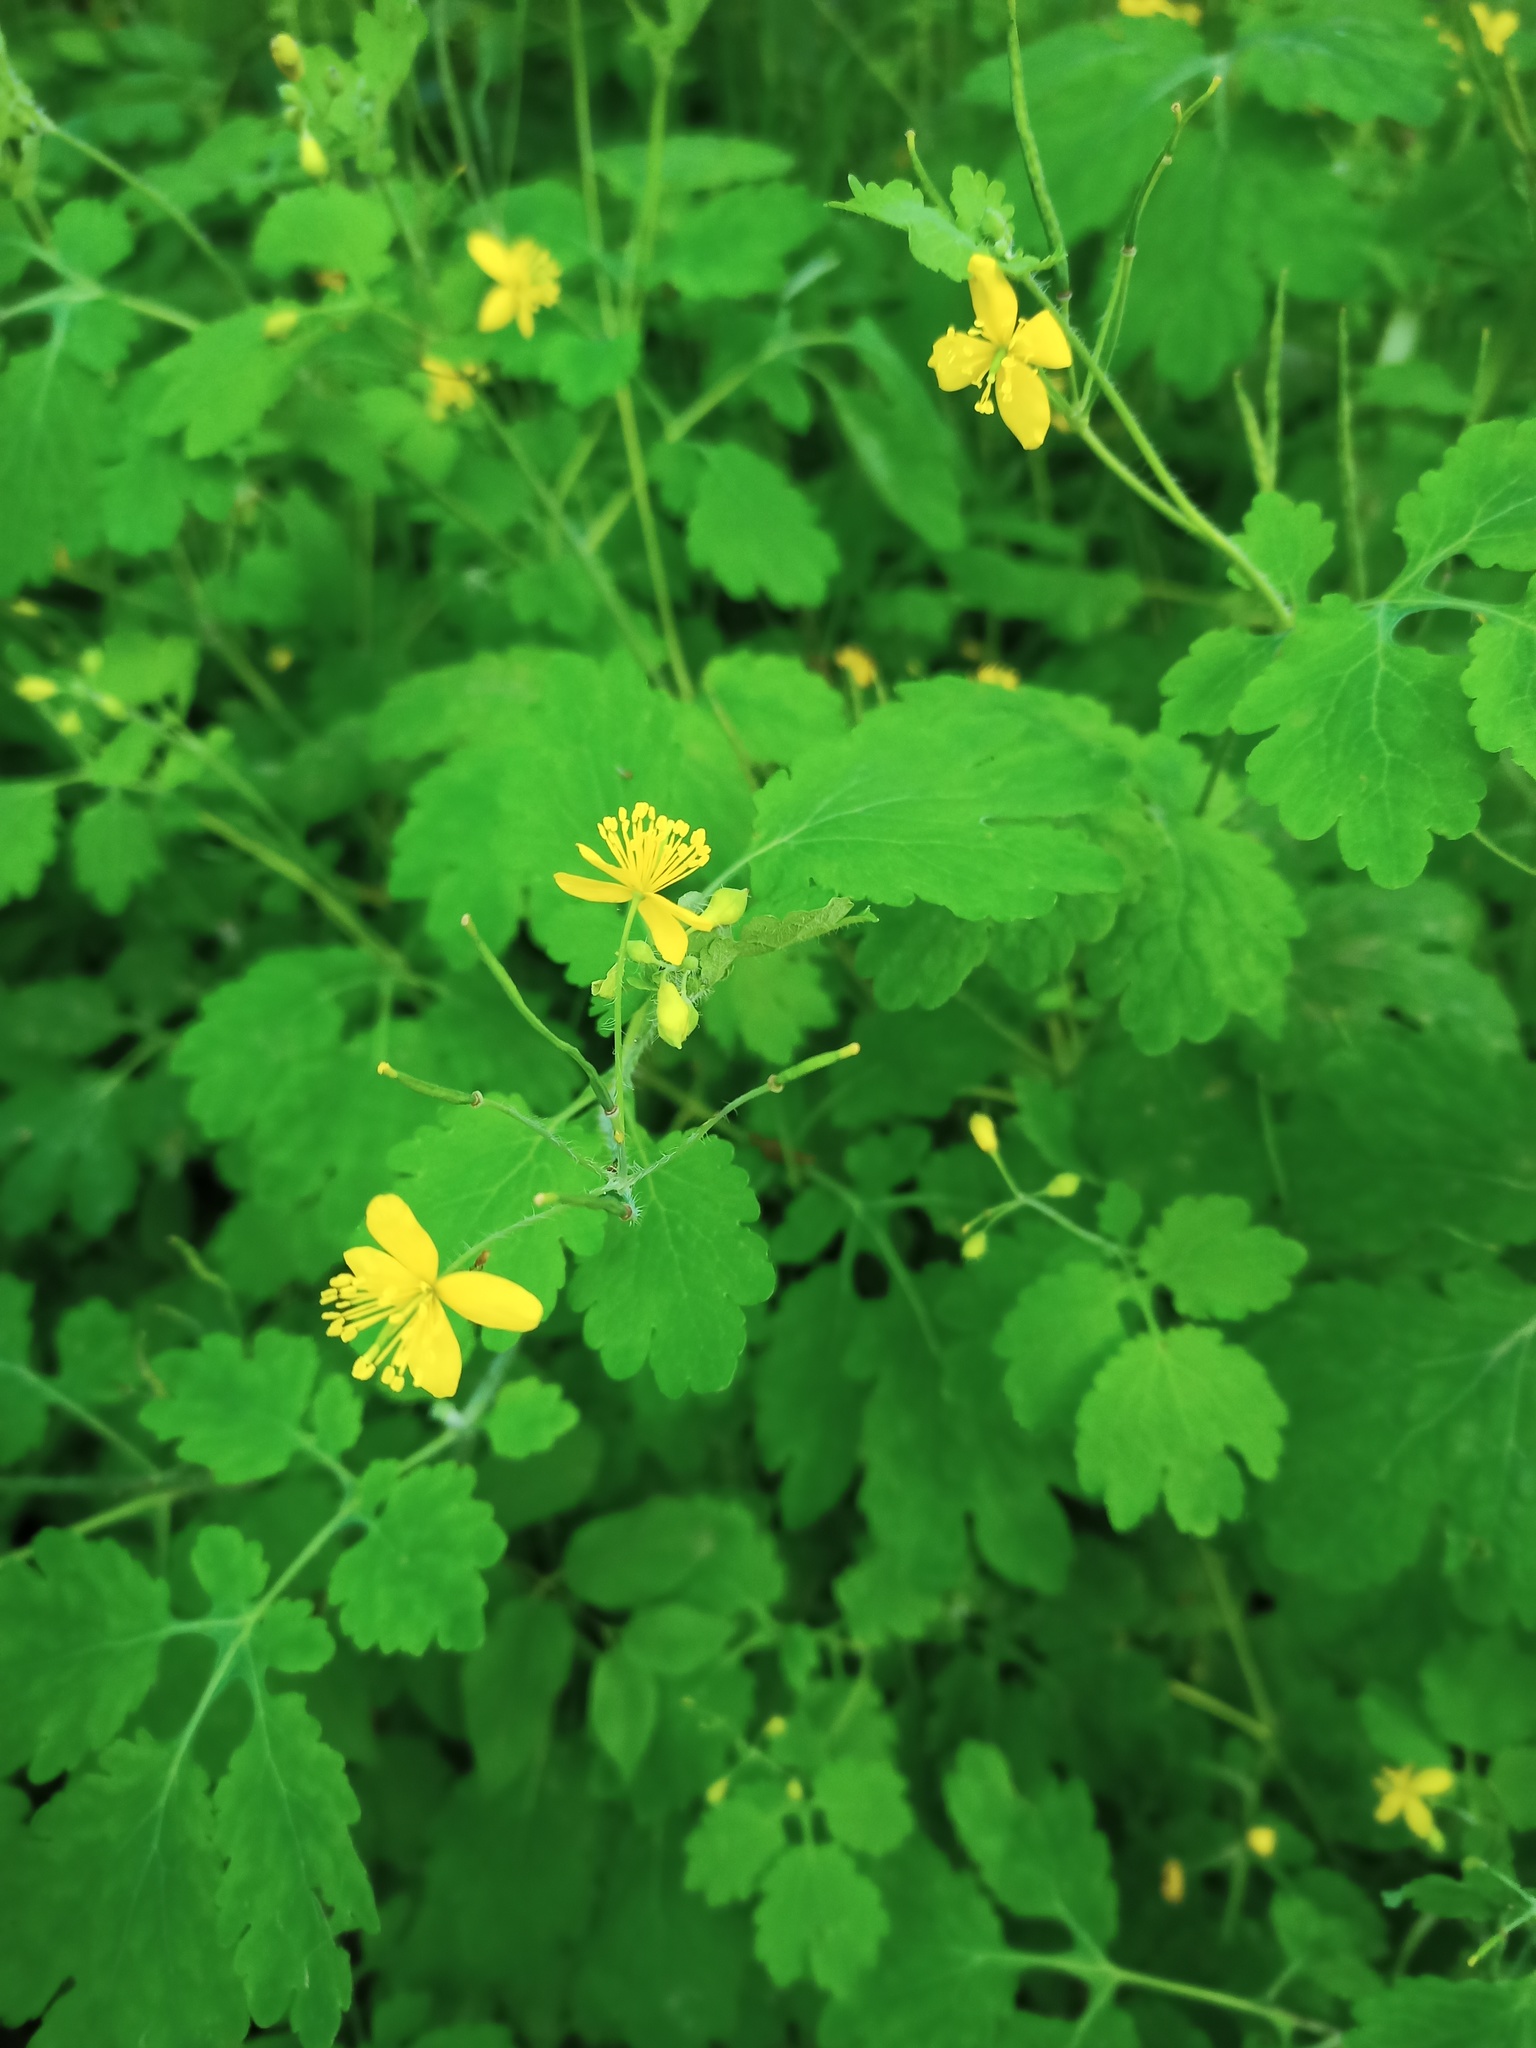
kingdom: Plantae
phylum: Tracheophyta
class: Magnoliopsida
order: Ranunculales
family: Papaveraceae
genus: Chelidonium
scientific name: Chelidonium majus
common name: Greater celandine
